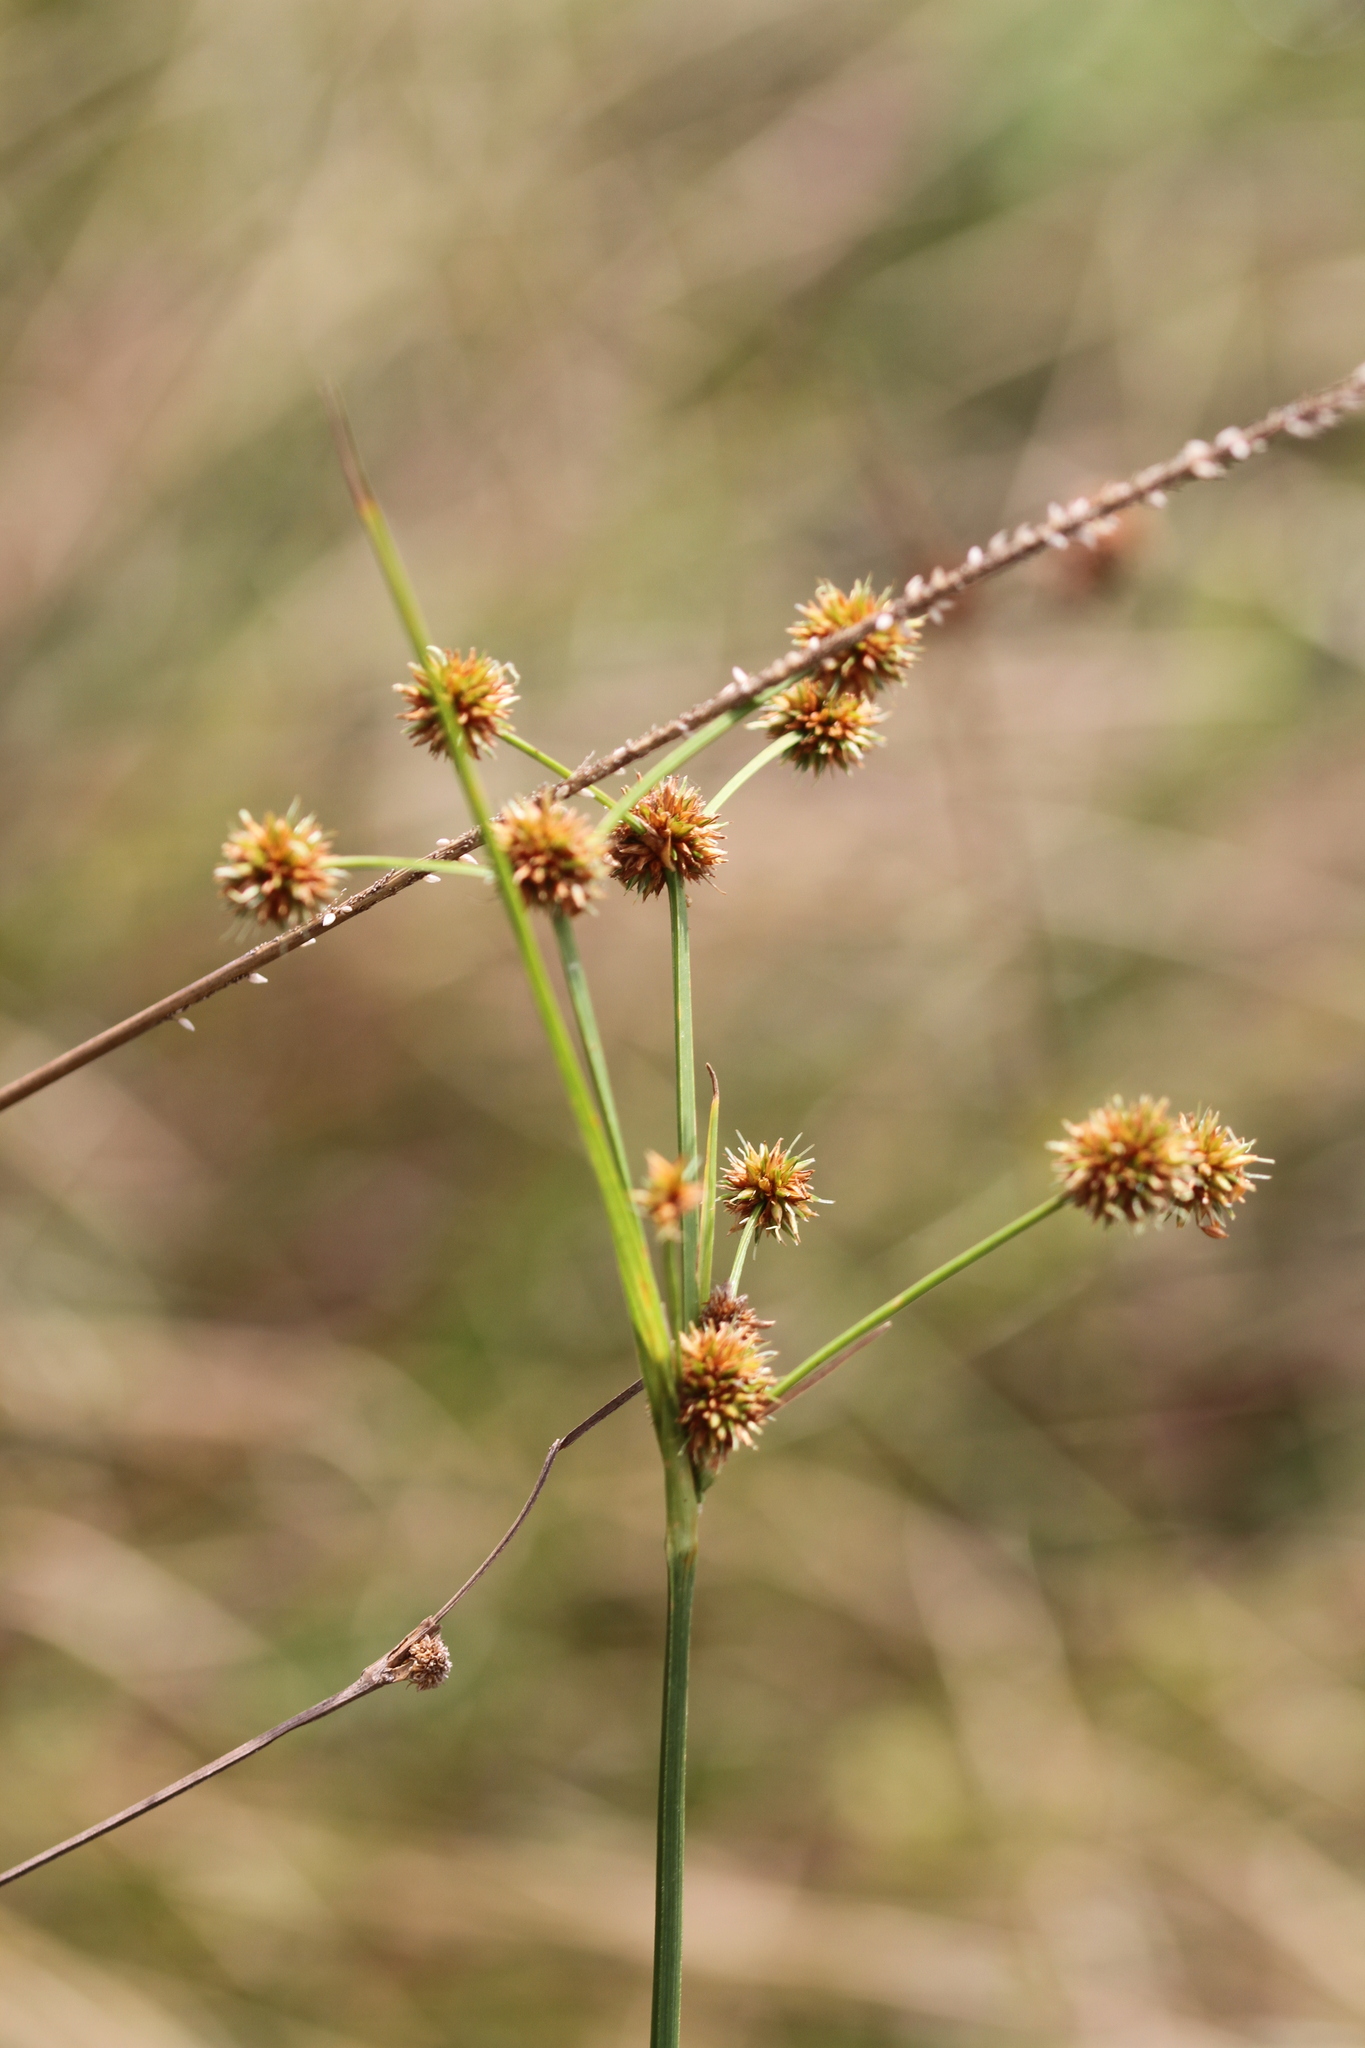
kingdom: Plantae
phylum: Tracheophyta
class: Liliopsida
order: Poales
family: Cyperaceae
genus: Rhynchospora
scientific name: Rhynchospora holoschoenoides
